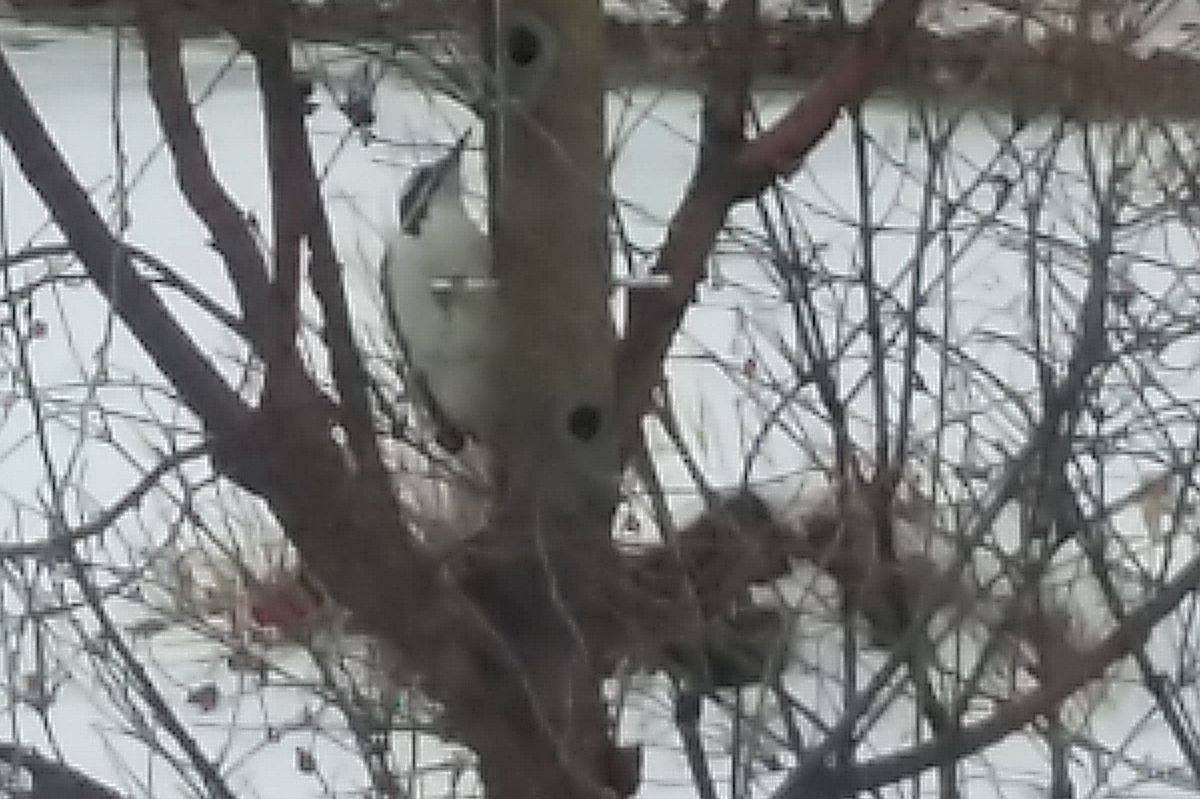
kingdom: Animalia
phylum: Chordata
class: Aves
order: Piciformes
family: Picidae
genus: Leuconotopicus
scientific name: Leuconotopicus villosus
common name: Hairy woodpecker
